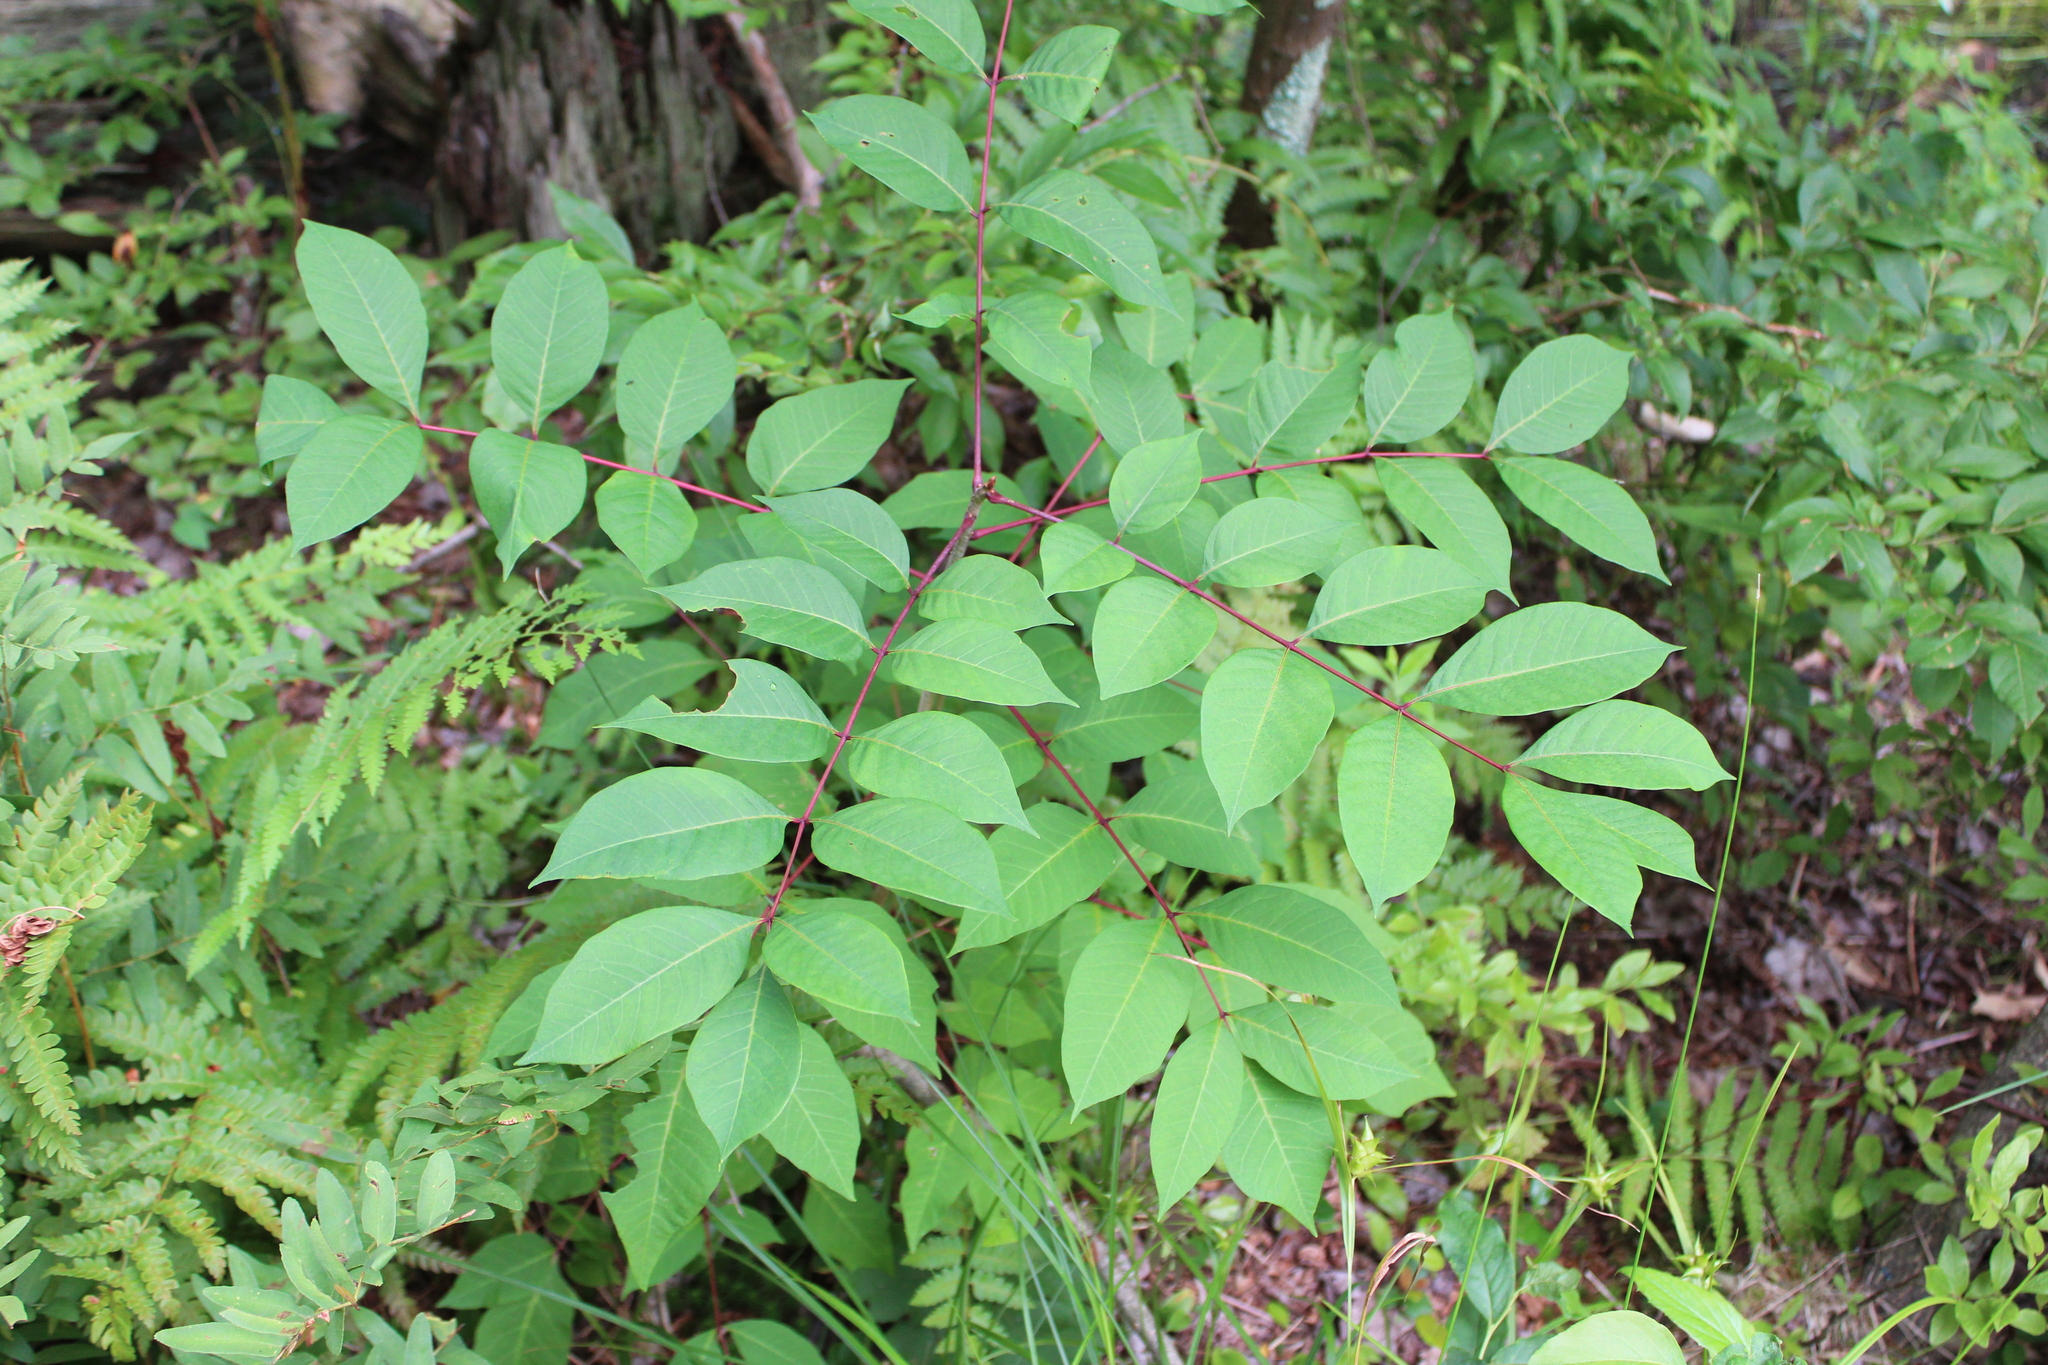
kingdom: Plantae
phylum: Tracheophyta
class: Magnoliopsida
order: Sapindales
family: Anacardiaceae
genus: Toxicodendron
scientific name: Toxicodendron vernix
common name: Poison sumac
